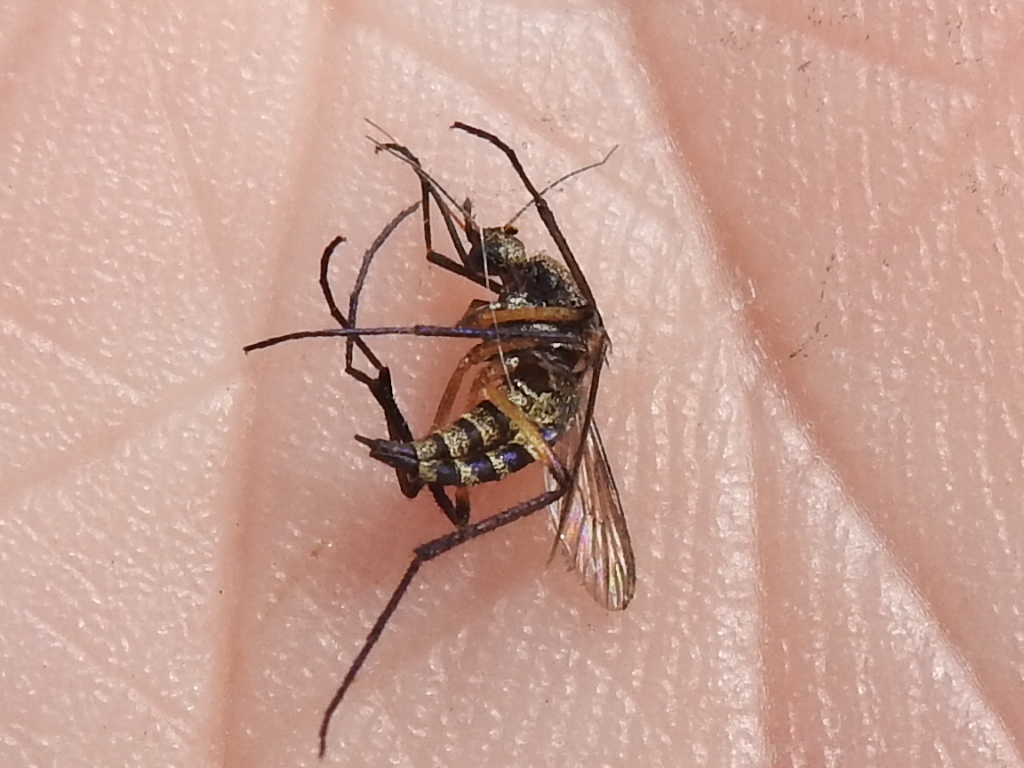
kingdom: Animalia
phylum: Arthropoda
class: Insecta
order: Diptera
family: Culicidae
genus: Psorophora
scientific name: Psorophora cyanescens
